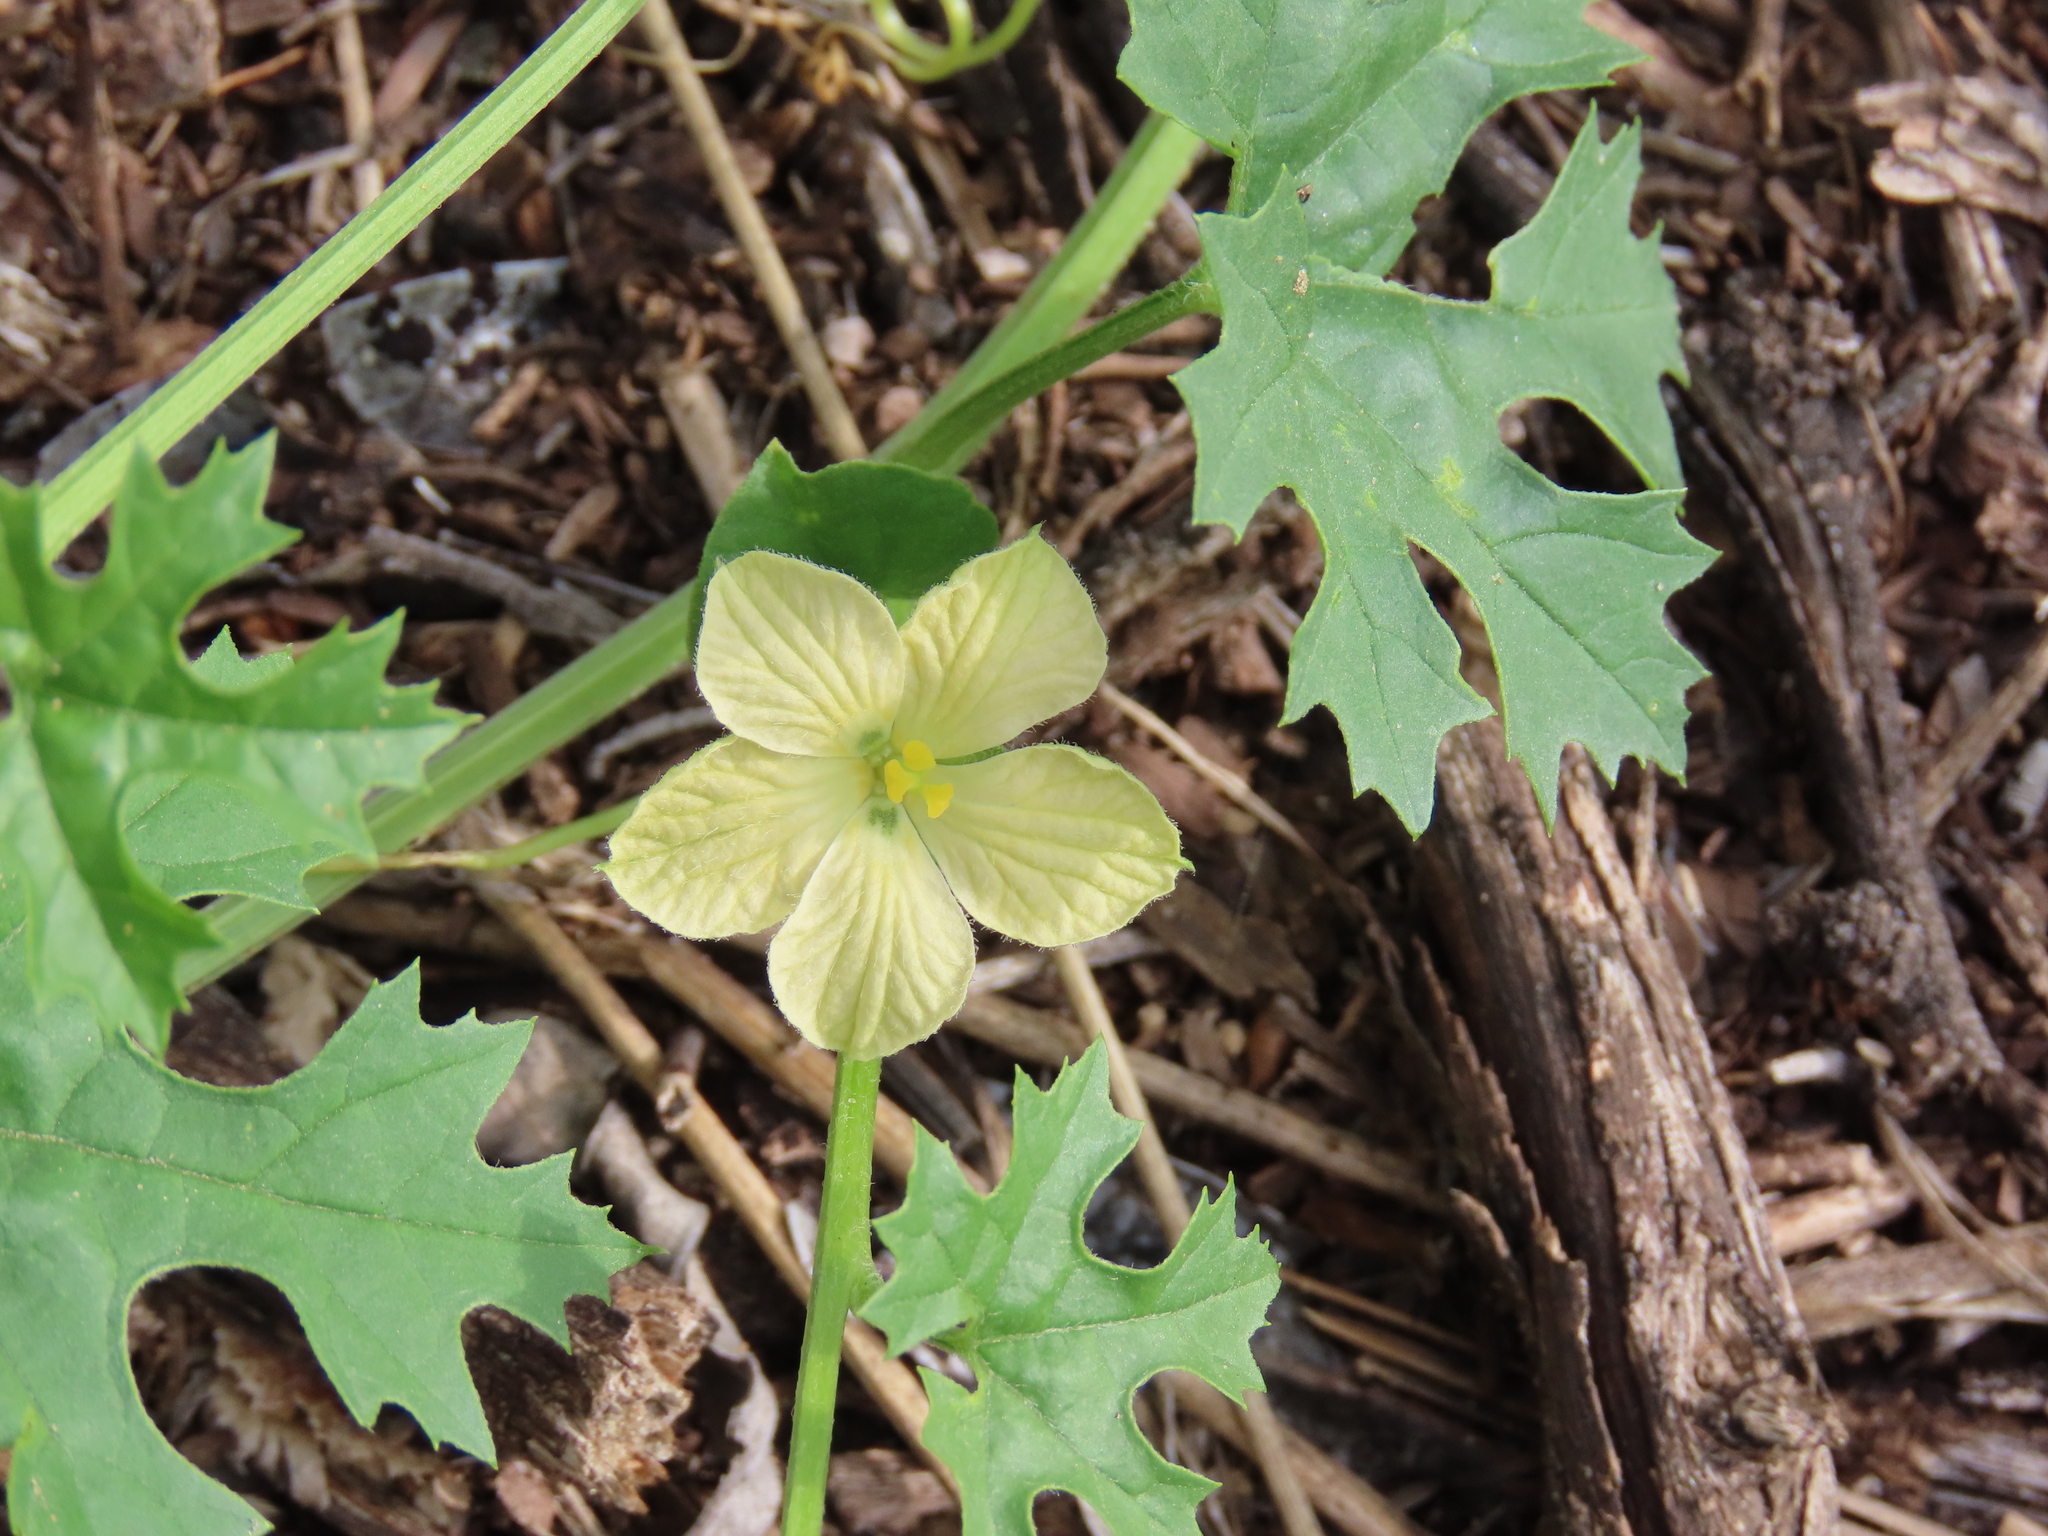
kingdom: Plantae
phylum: Tracheophyta
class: Magnoliopsida
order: Cucurbitales
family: Cucurbitaceae
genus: Momordica
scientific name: Momordica balsamina
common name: Southern balsampear
